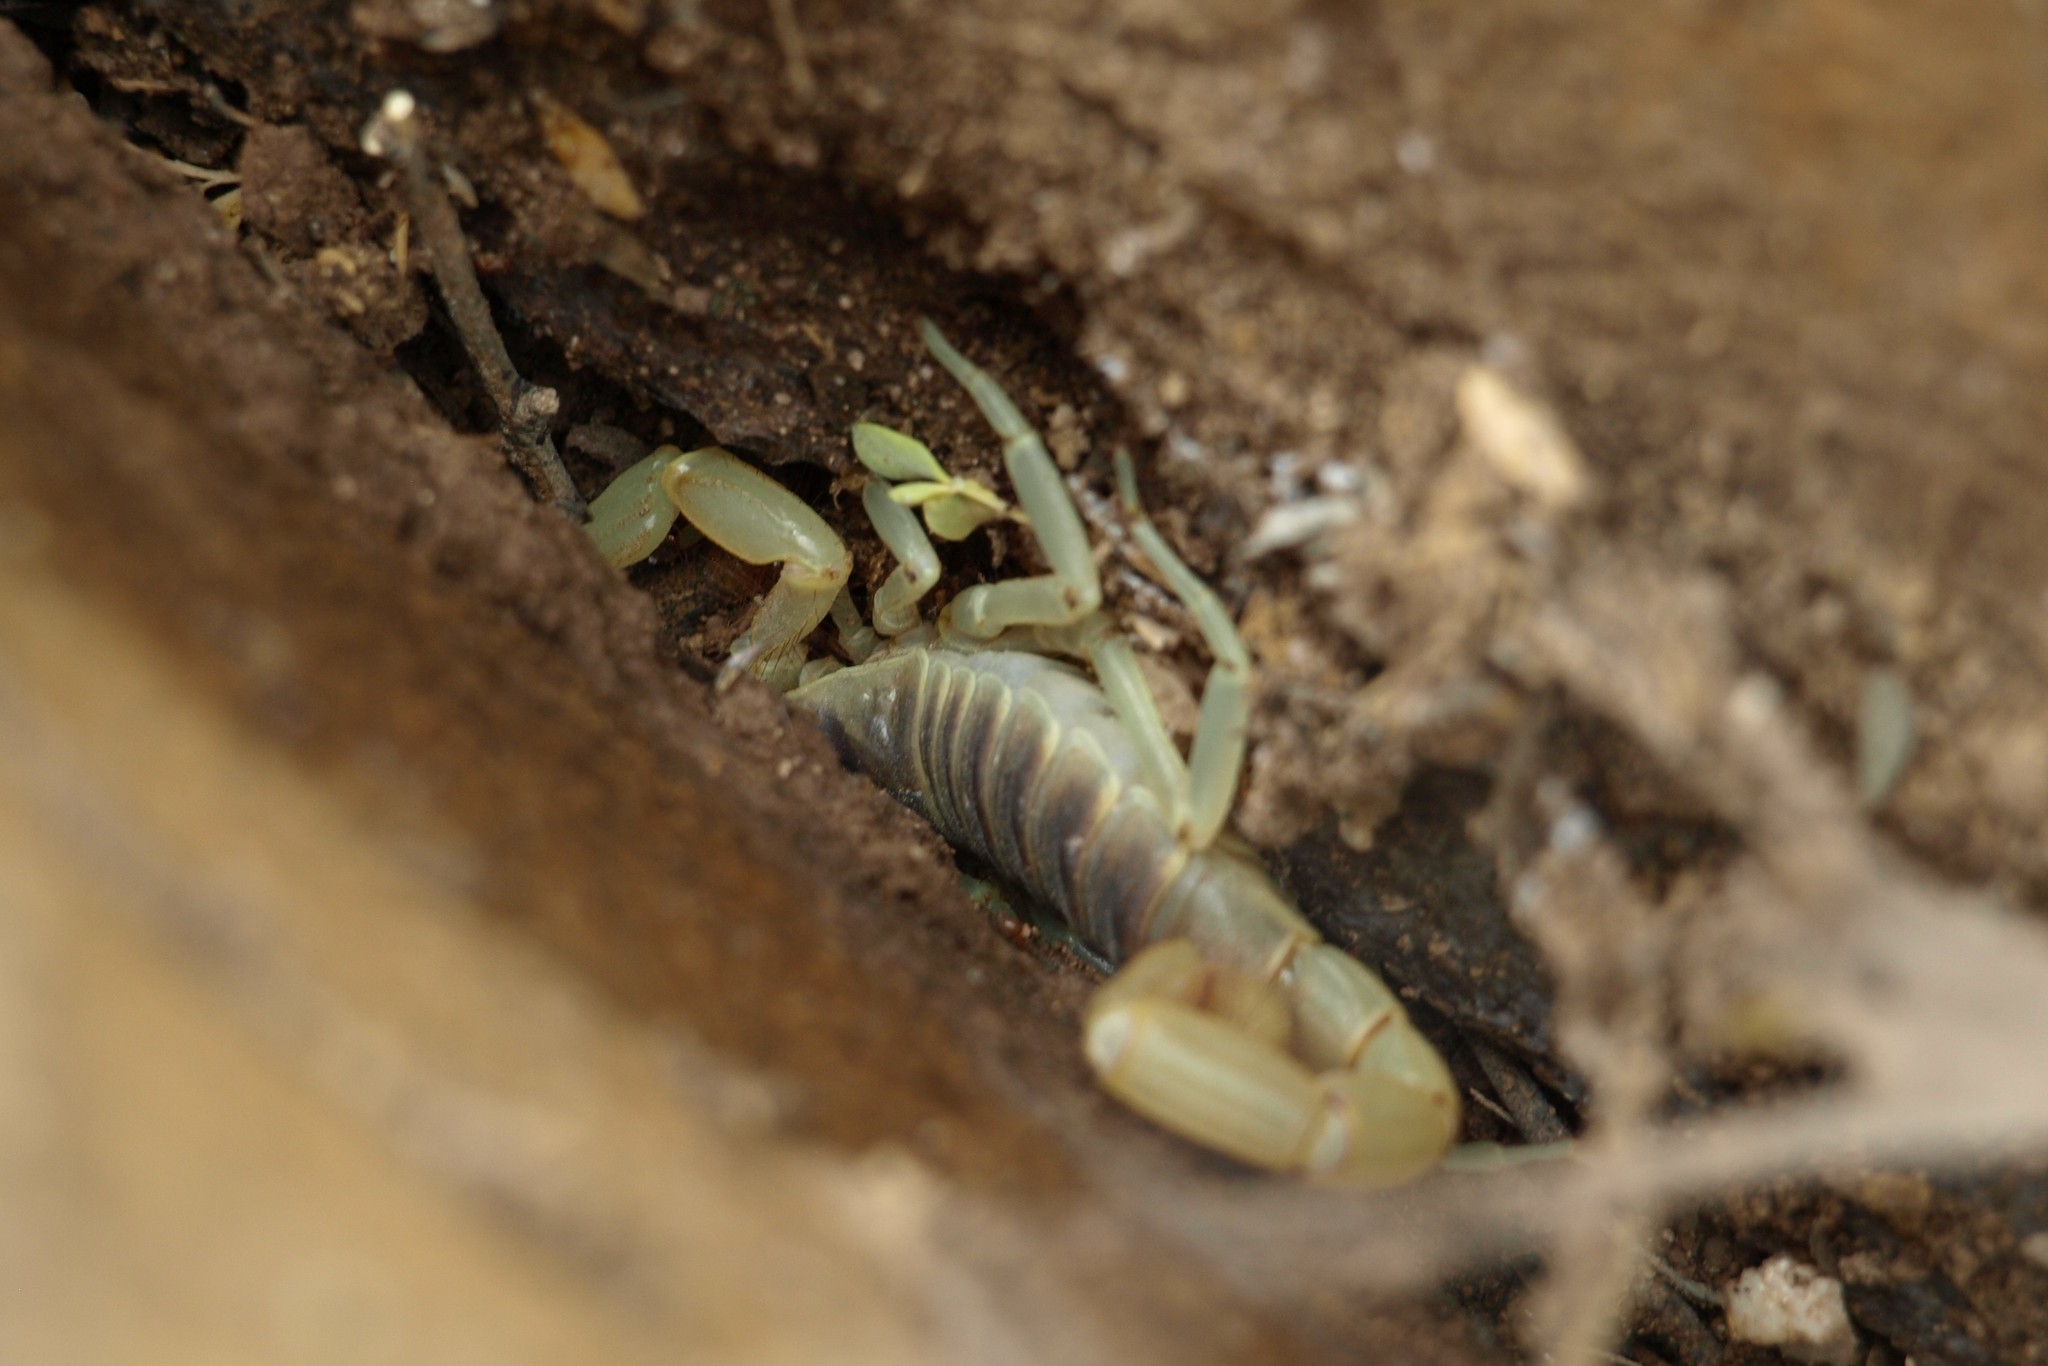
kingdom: Animalia
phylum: Arthropoda
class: Arachnida
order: Scorpiones
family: Hadruridae
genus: Hadrurus
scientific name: Hadrurus arizonensis
